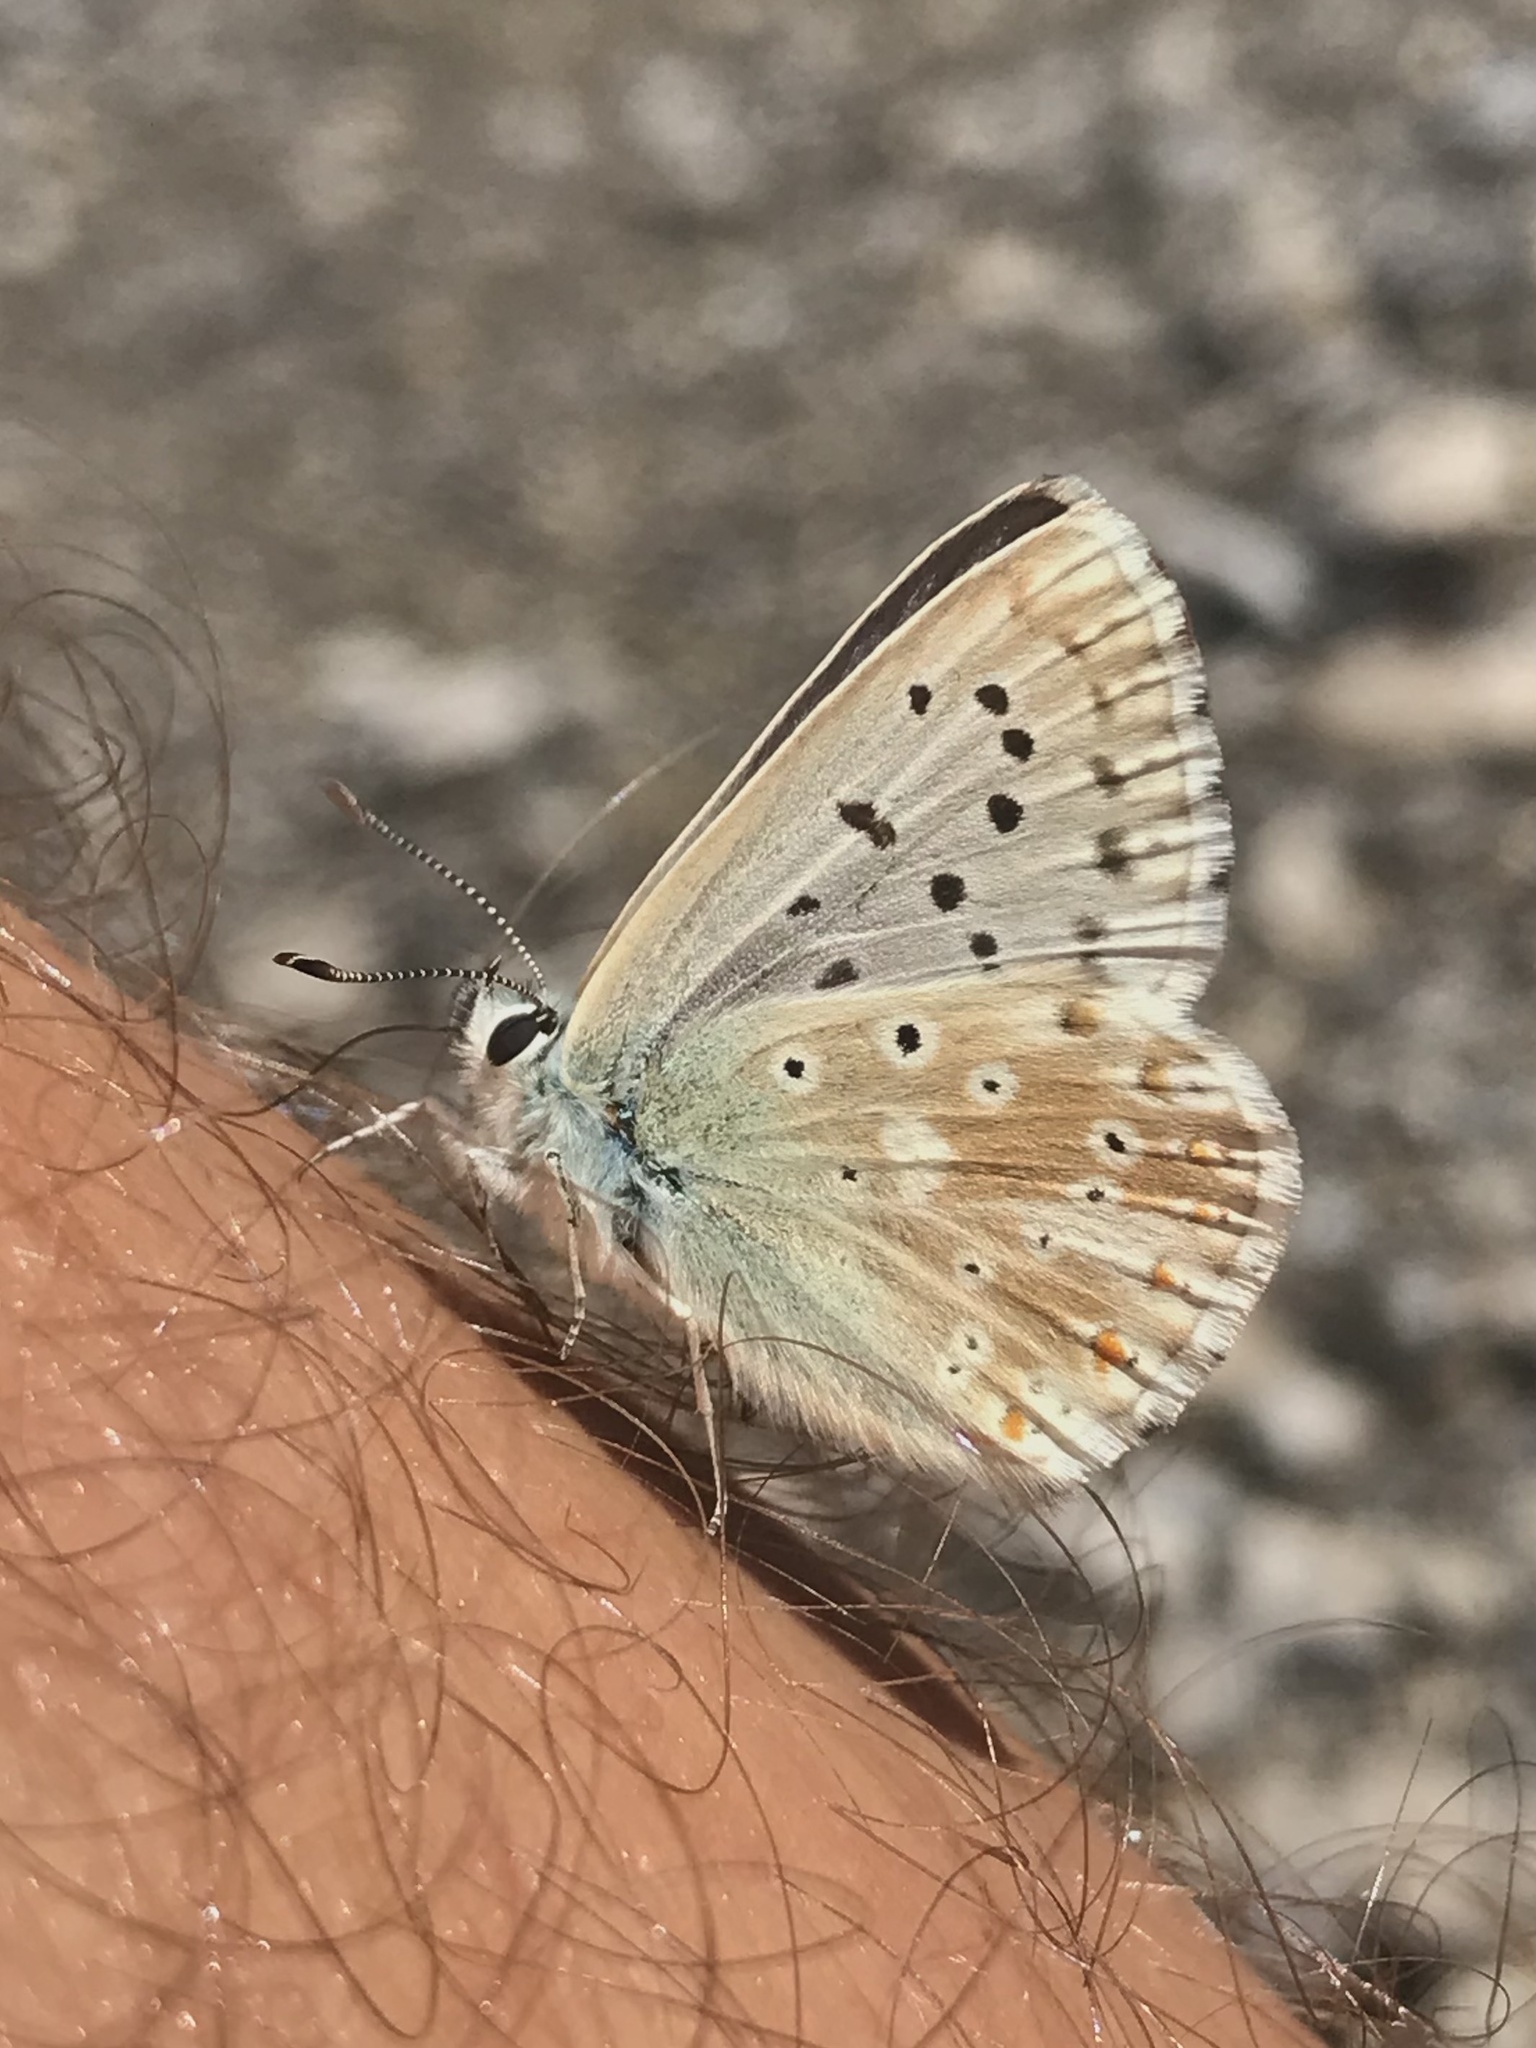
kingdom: Animalia
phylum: Arthropoda
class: Insecta
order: Lepidoptera
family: Lycaenidae
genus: Lysandra
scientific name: Lysandra coridon
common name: Chalkhill blue
